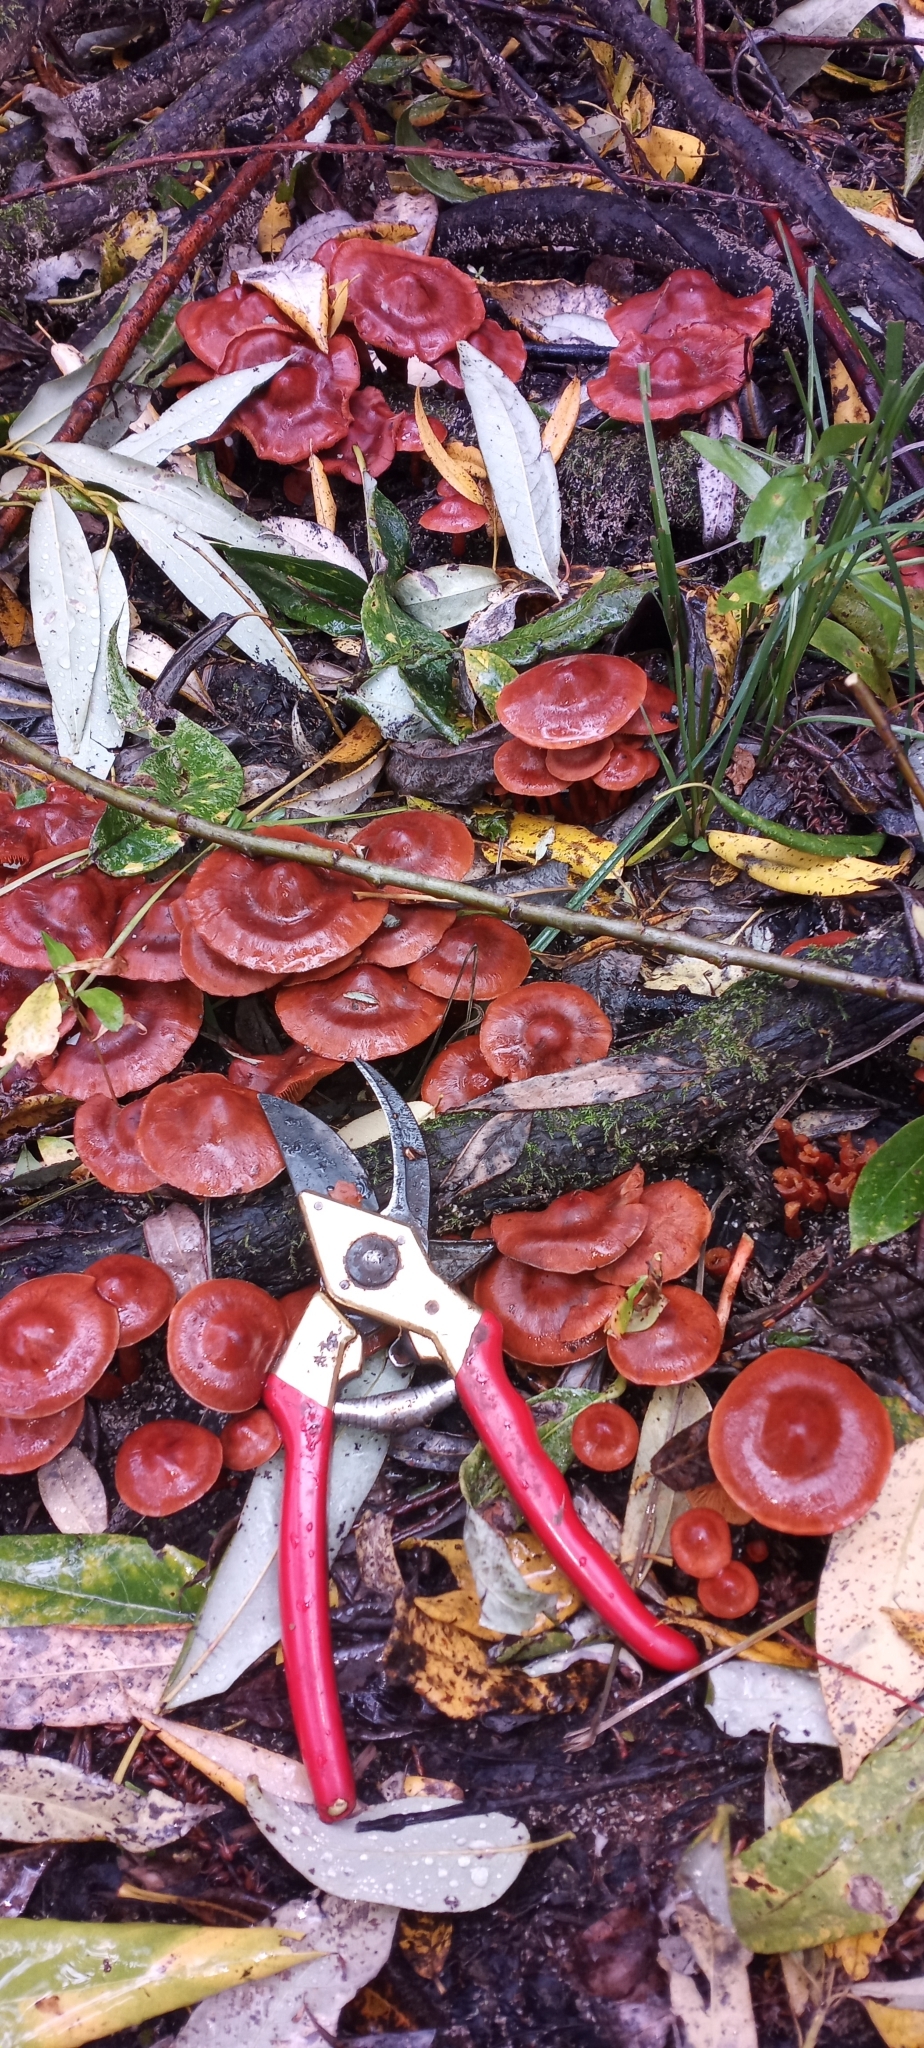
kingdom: Fungi
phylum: Basidiomycota
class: Agaricomycetes
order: Agaricales
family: Cortinariaceae
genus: Cortinarius
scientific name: Cortinarius uliginosus
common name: Marsh webcap
